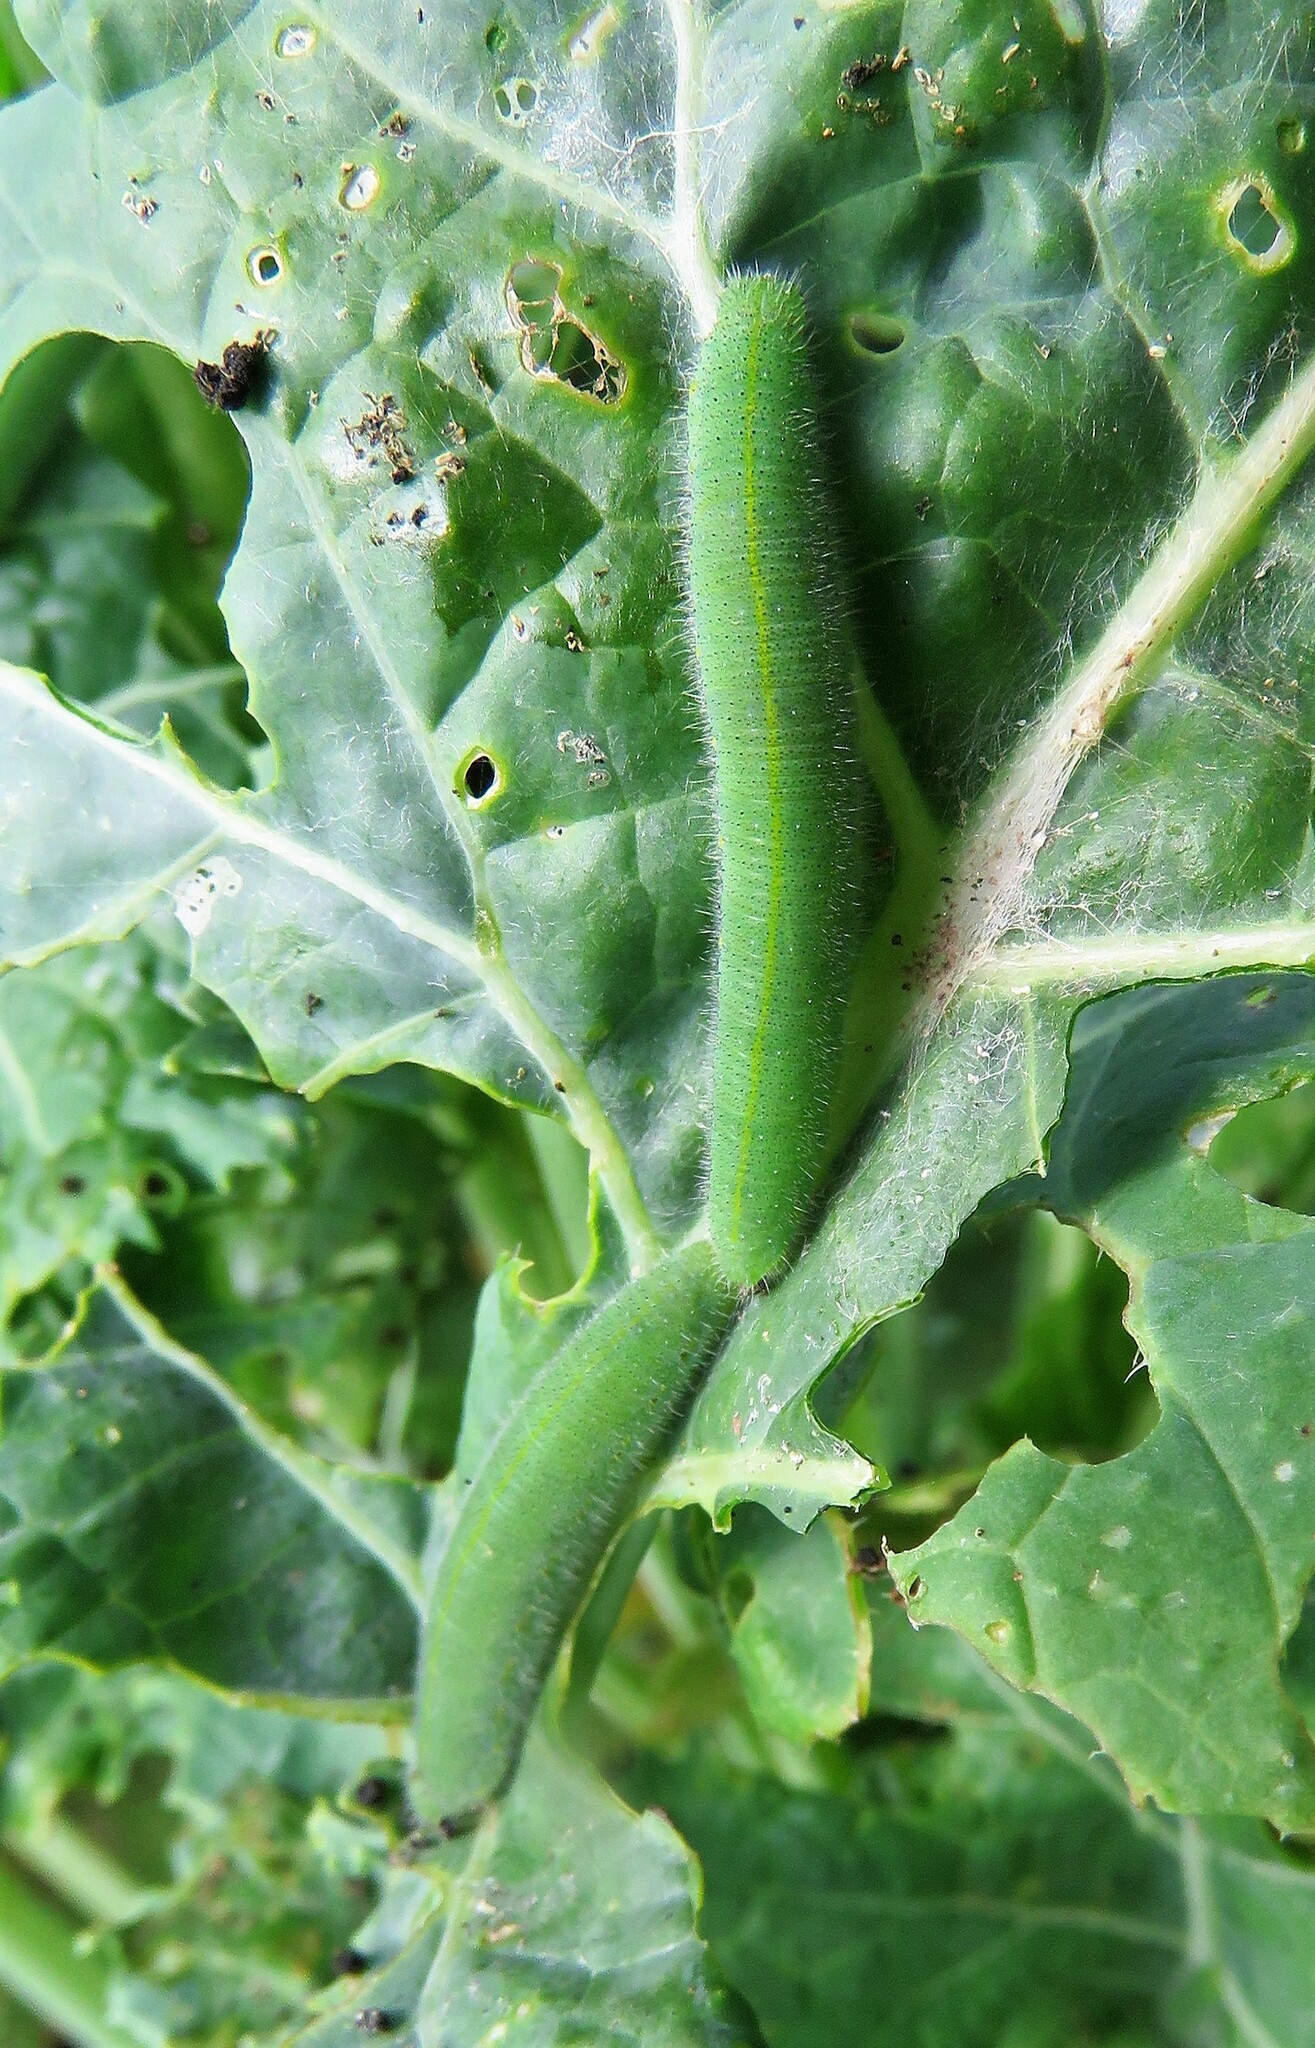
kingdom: Animalia
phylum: Arthropoda
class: Insecta
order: Lepidoptera
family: Pieridae
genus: Pieris
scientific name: Pieris rapae
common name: Small white
